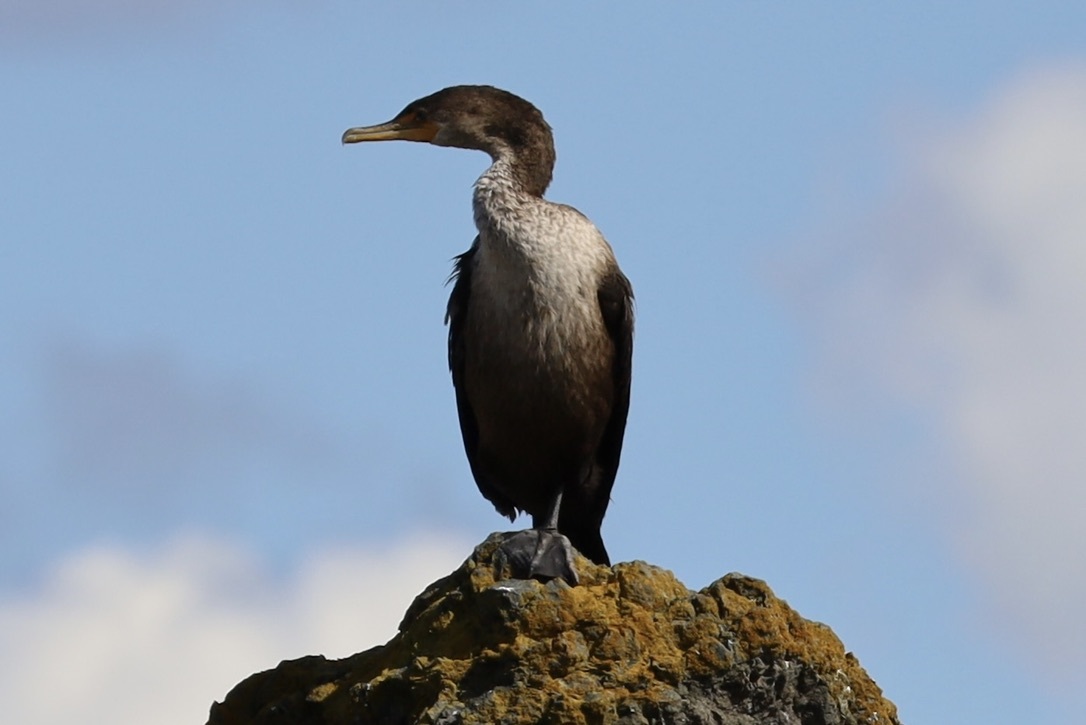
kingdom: Animalia
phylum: Chordata
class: Aves
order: Suliformes
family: Phalacrocoracidae
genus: Phalacrocorax
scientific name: Phalacrocorax auritus
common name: Double-crested cormorant
